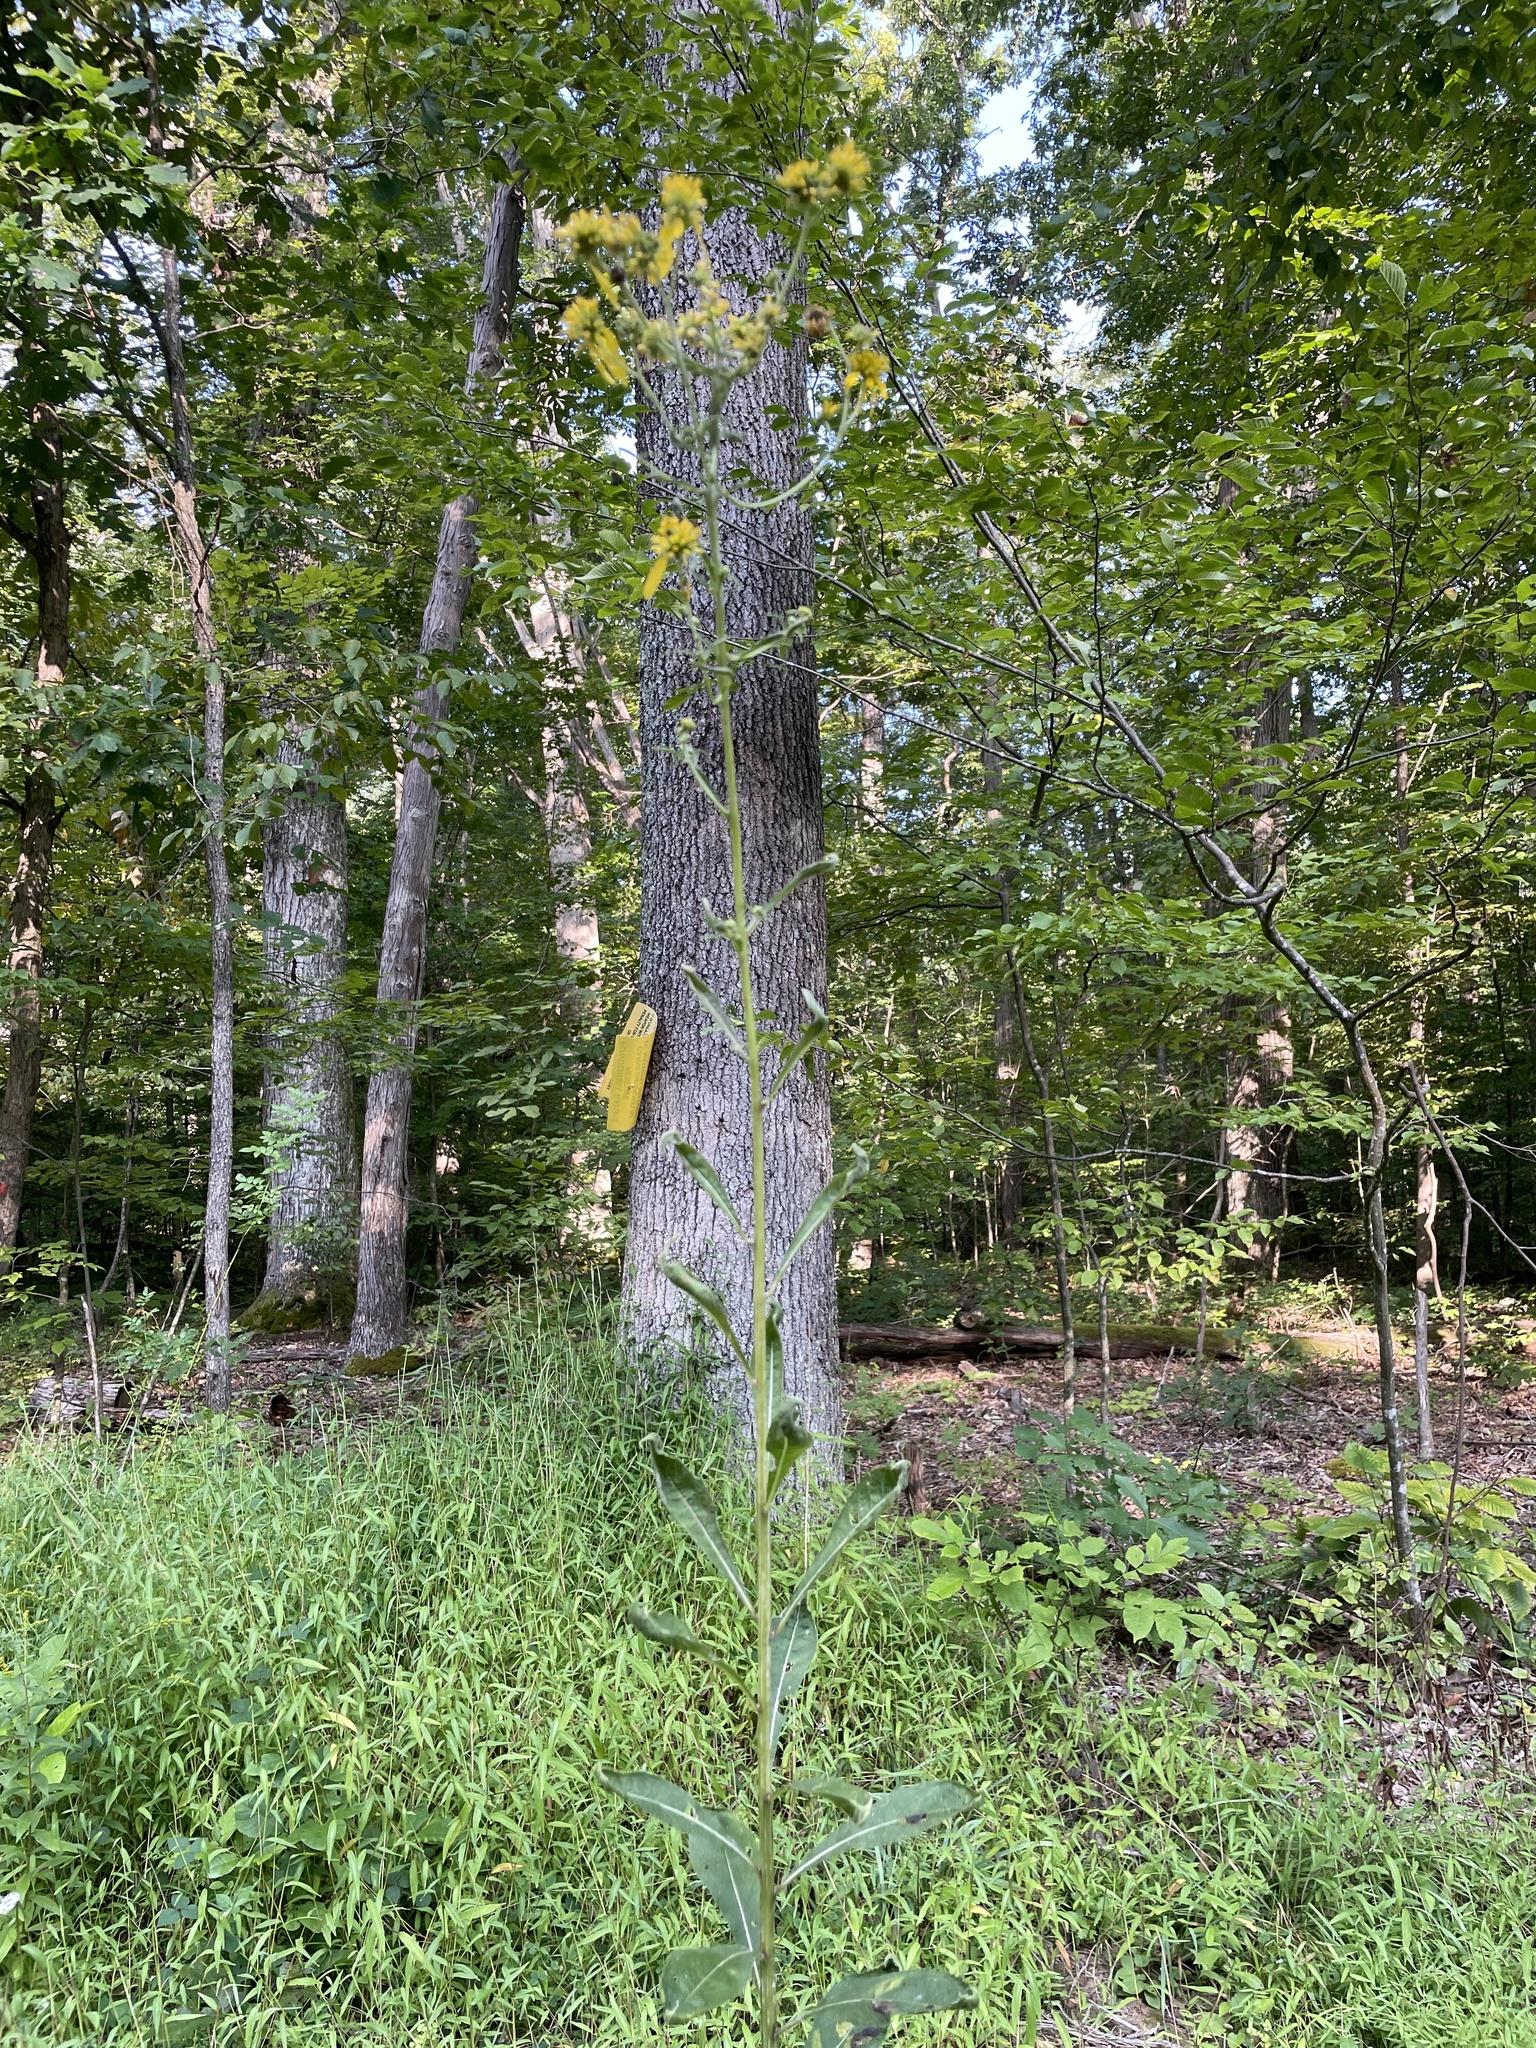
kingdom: Plantae
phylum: Tracheophyta
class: Magnoliopsida
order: Asterales
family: Asteraceae
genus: Verbesina
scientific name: Verbesina alternifolia
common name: Wingstem
